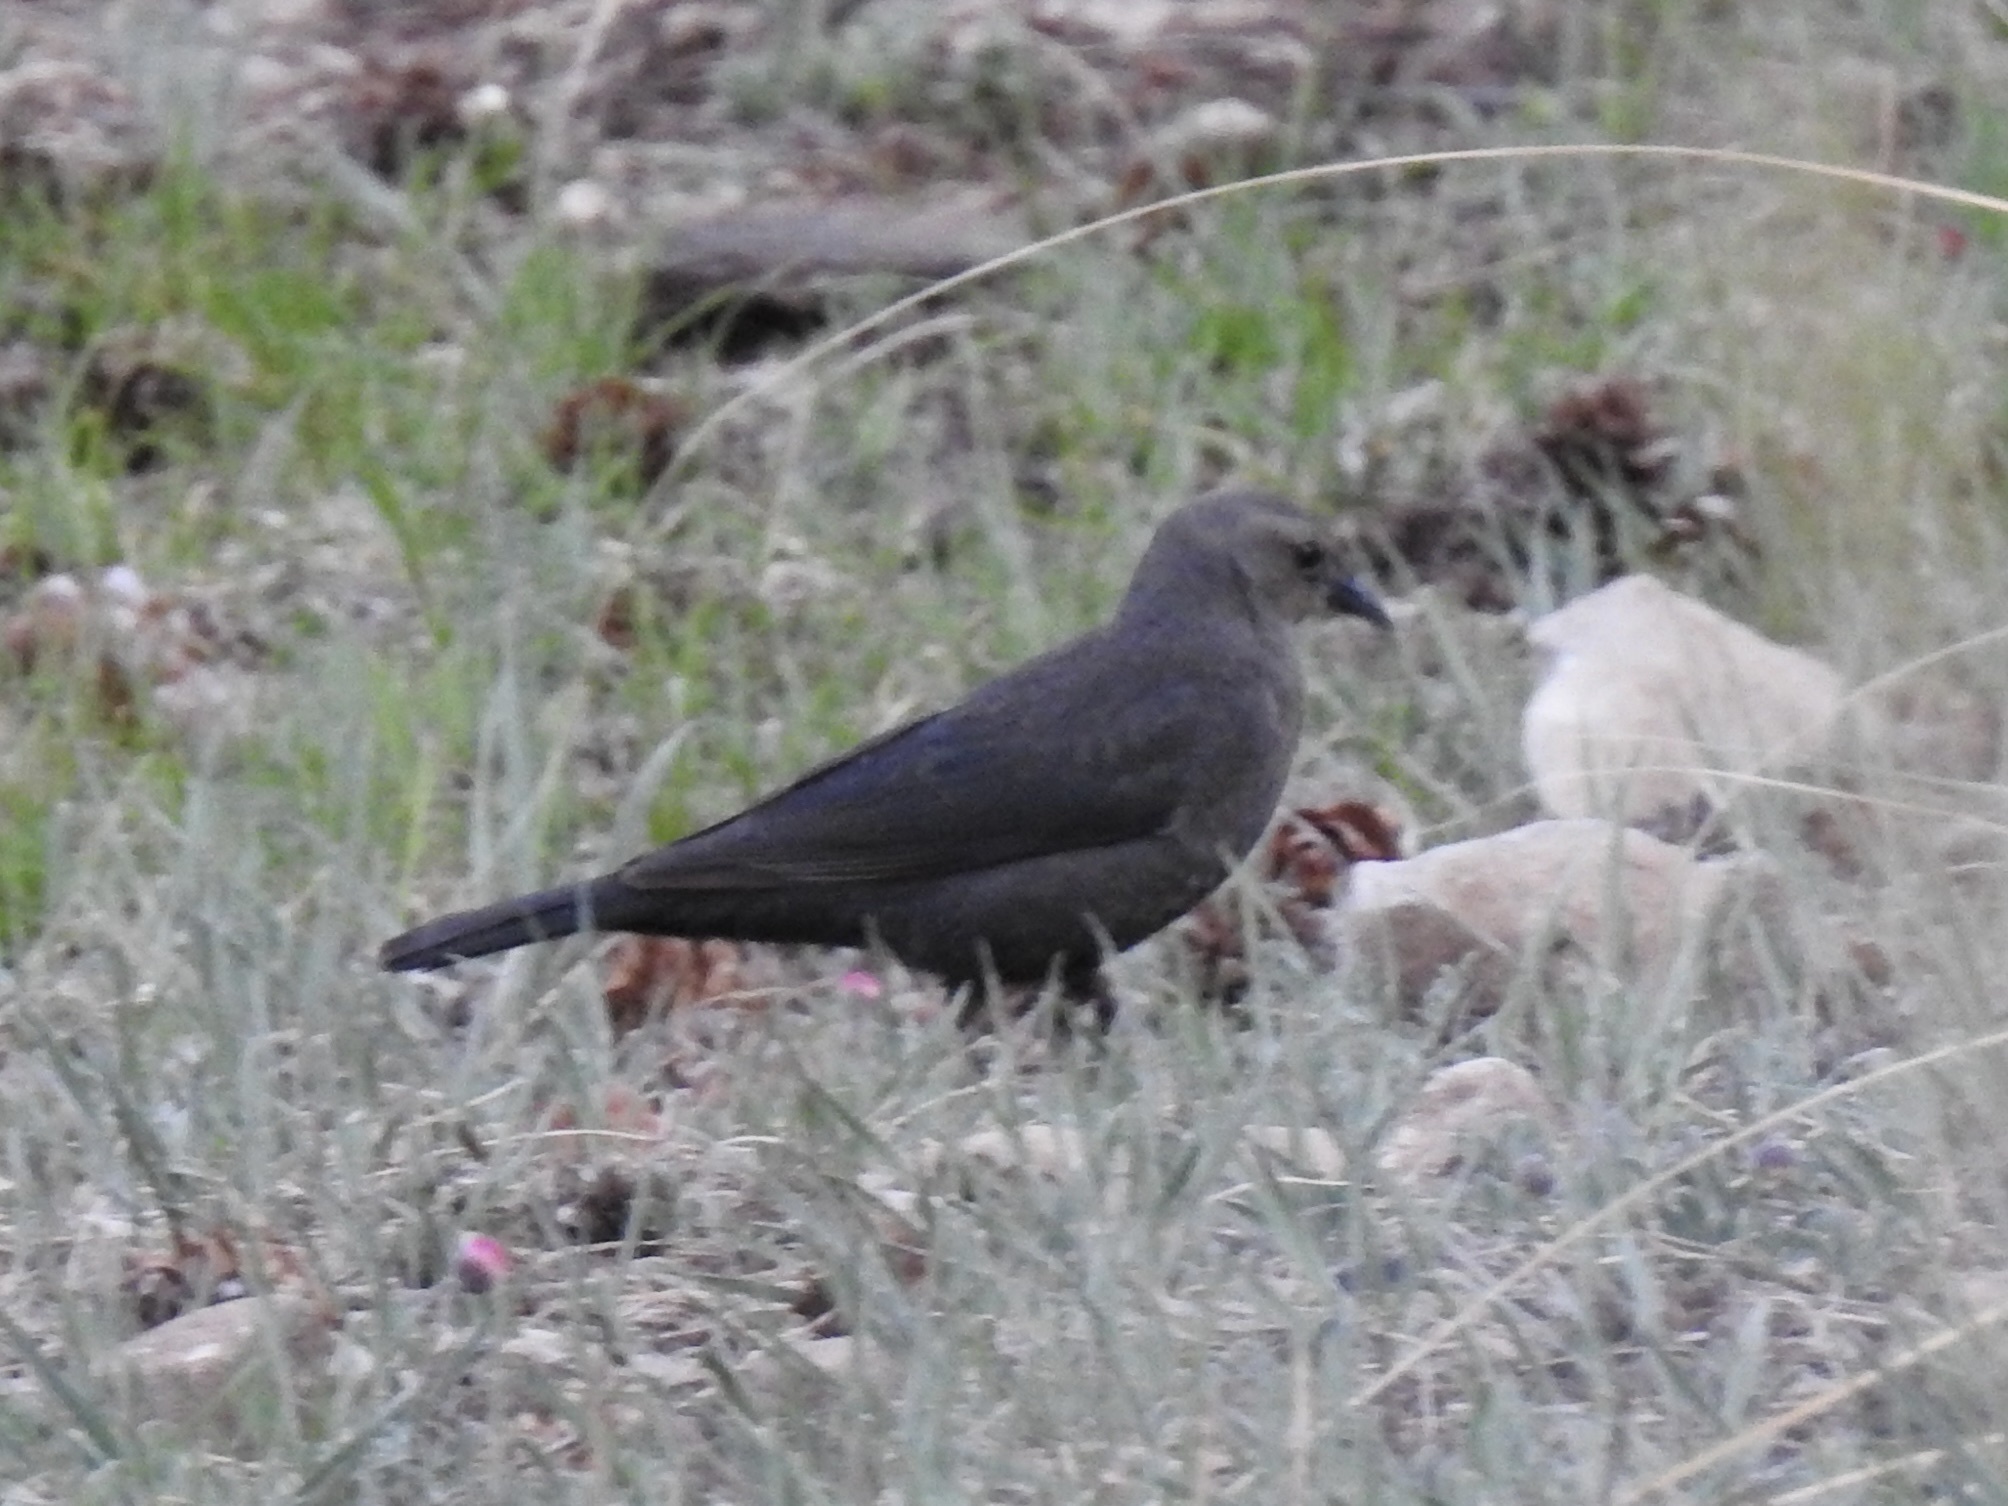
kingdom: Animalia
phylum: Chordata
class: Aves
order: Passeriformes
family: Icteridae
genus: Euphagus
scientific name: Euphagus cyanocephalus
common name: Brewer's blackbird
